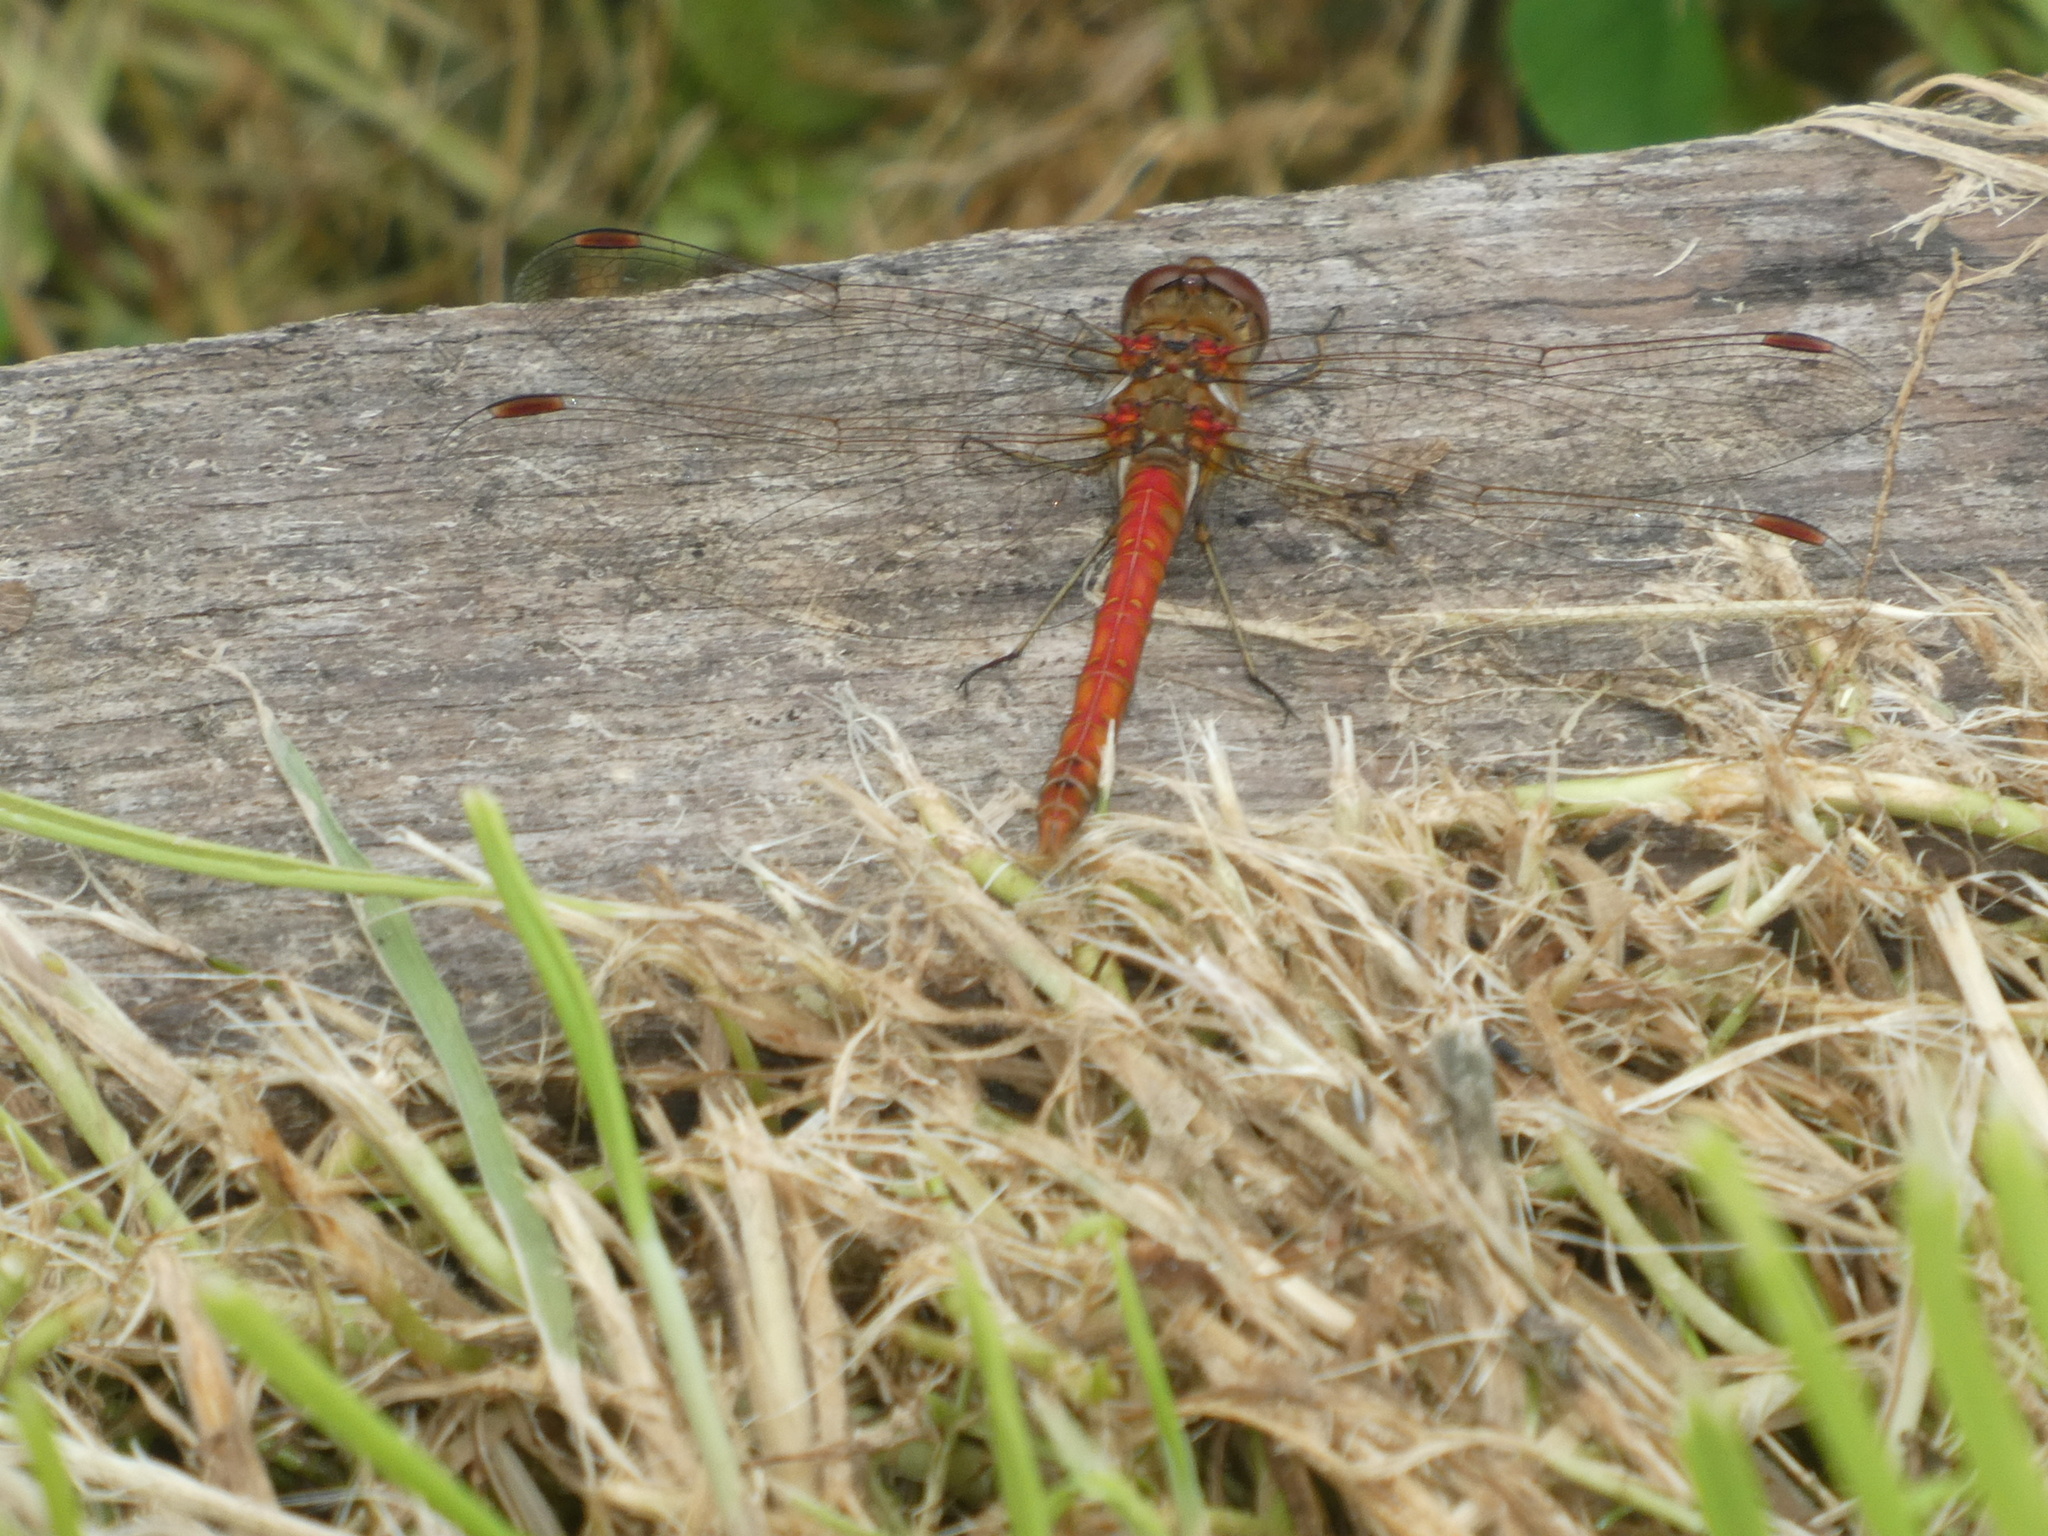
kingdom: Animalia
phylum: Arthropoda
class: Insecta
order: Odonata
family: Libellulidae
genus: Sympetrum
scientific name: Sympetrum striolatum
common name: Common darter
